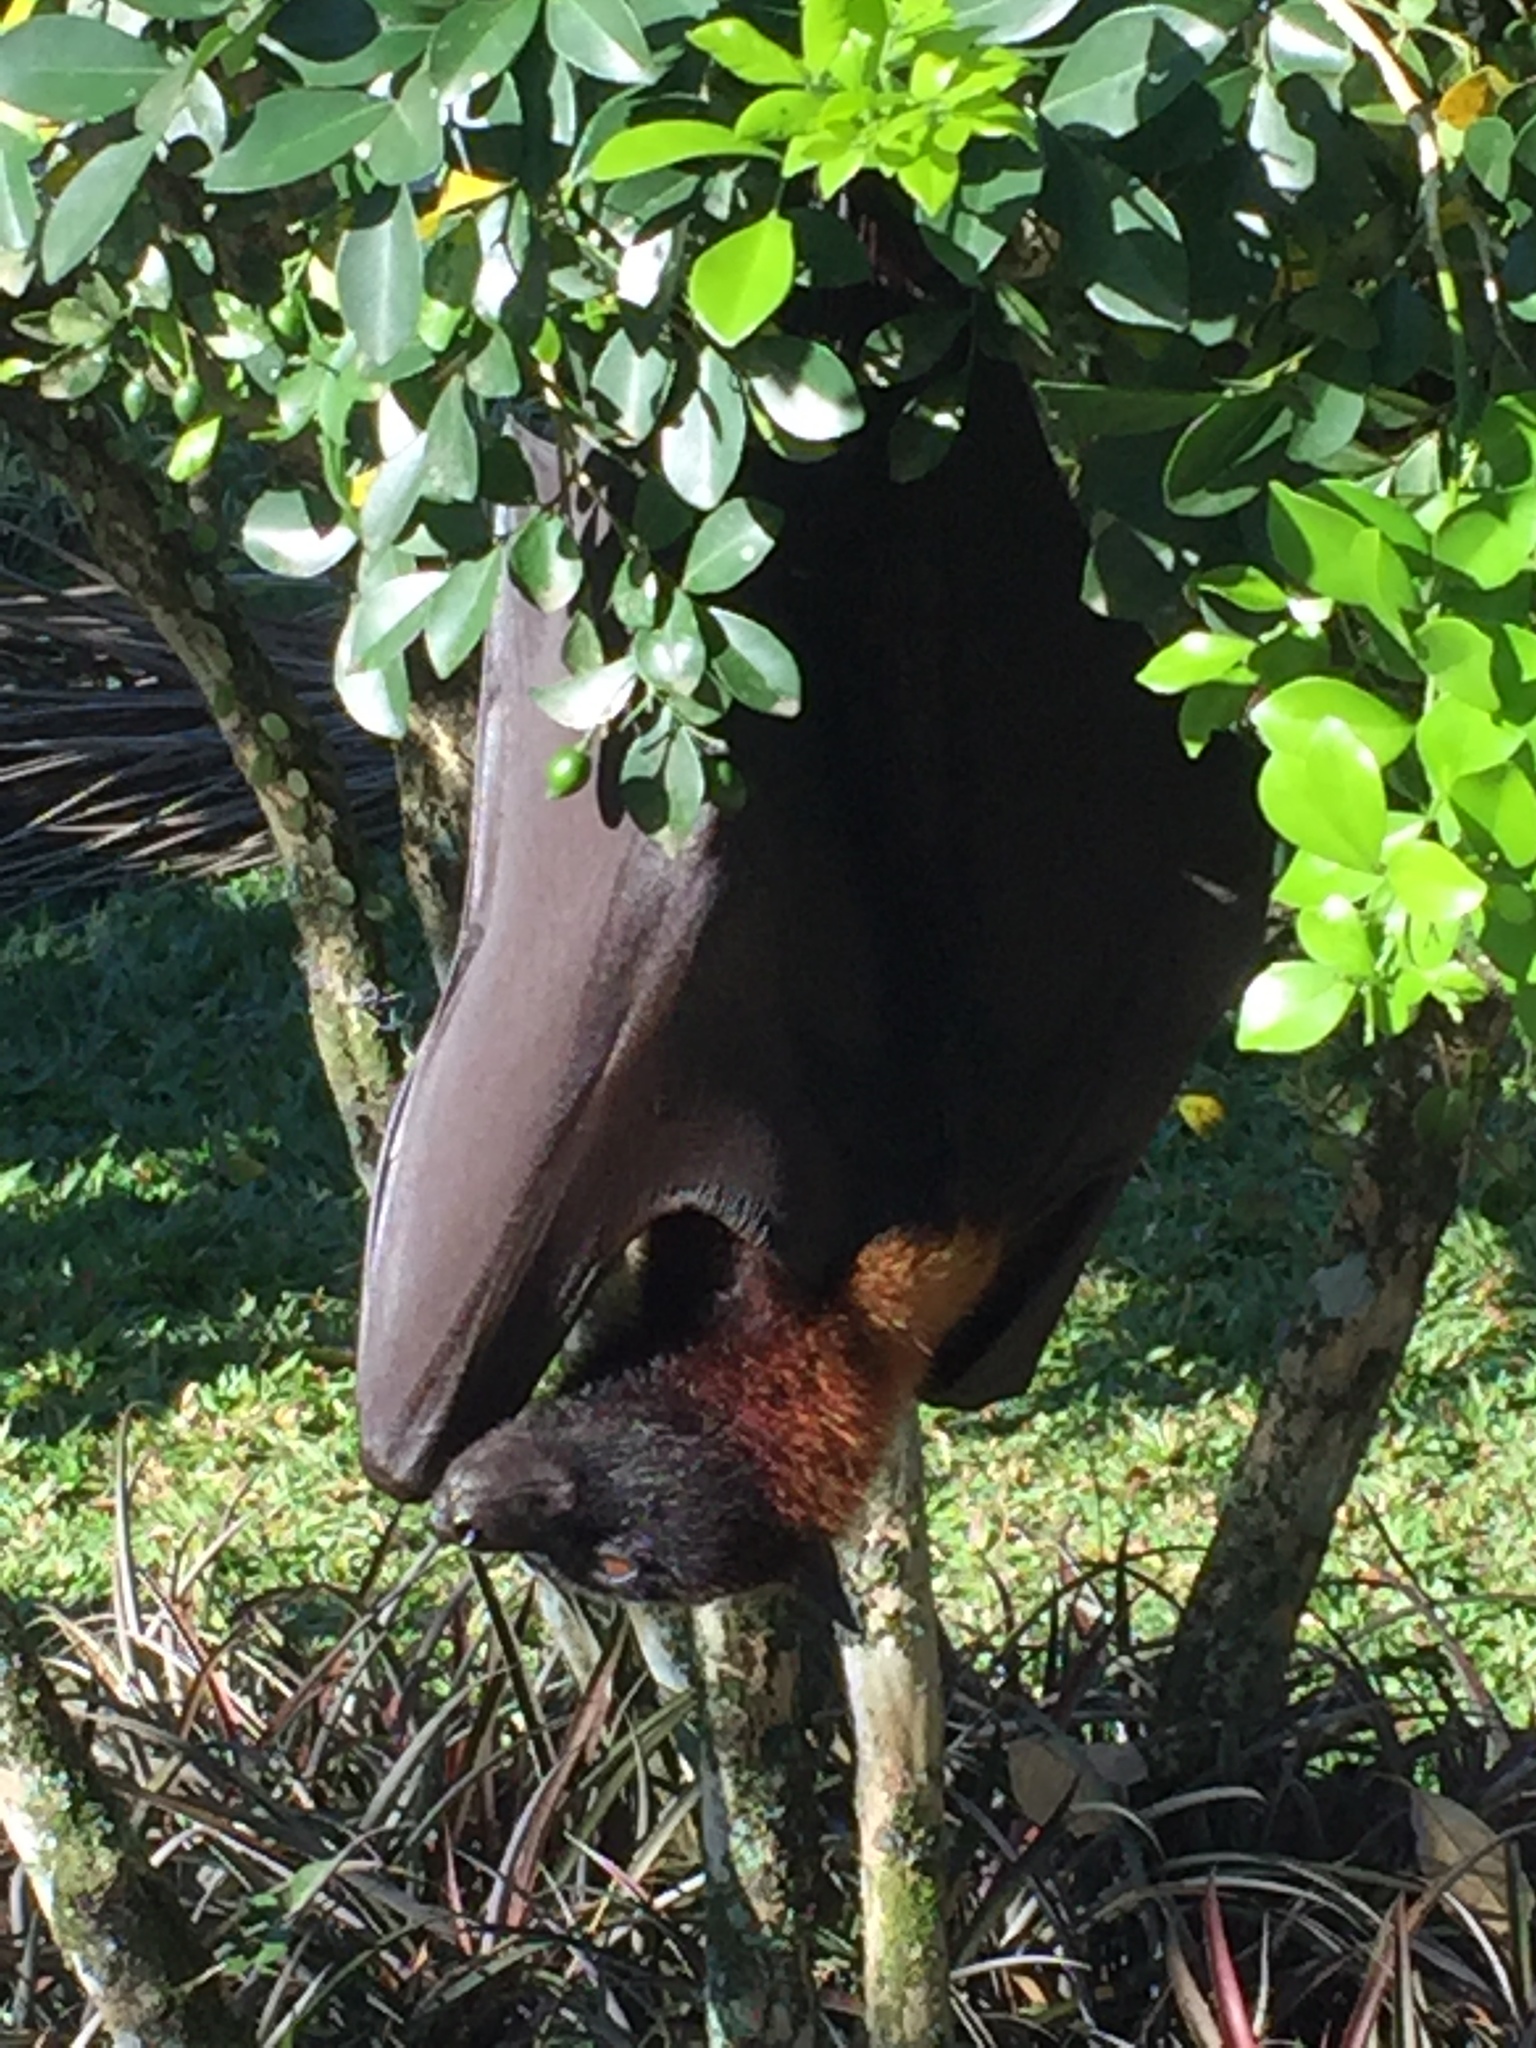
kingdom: Animalia
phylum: Chordata
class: Mammalia
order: Chiroptera
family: Pteropodidae
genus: Pteropus
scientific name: Pteropus vampyrus
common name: Large flying fox
